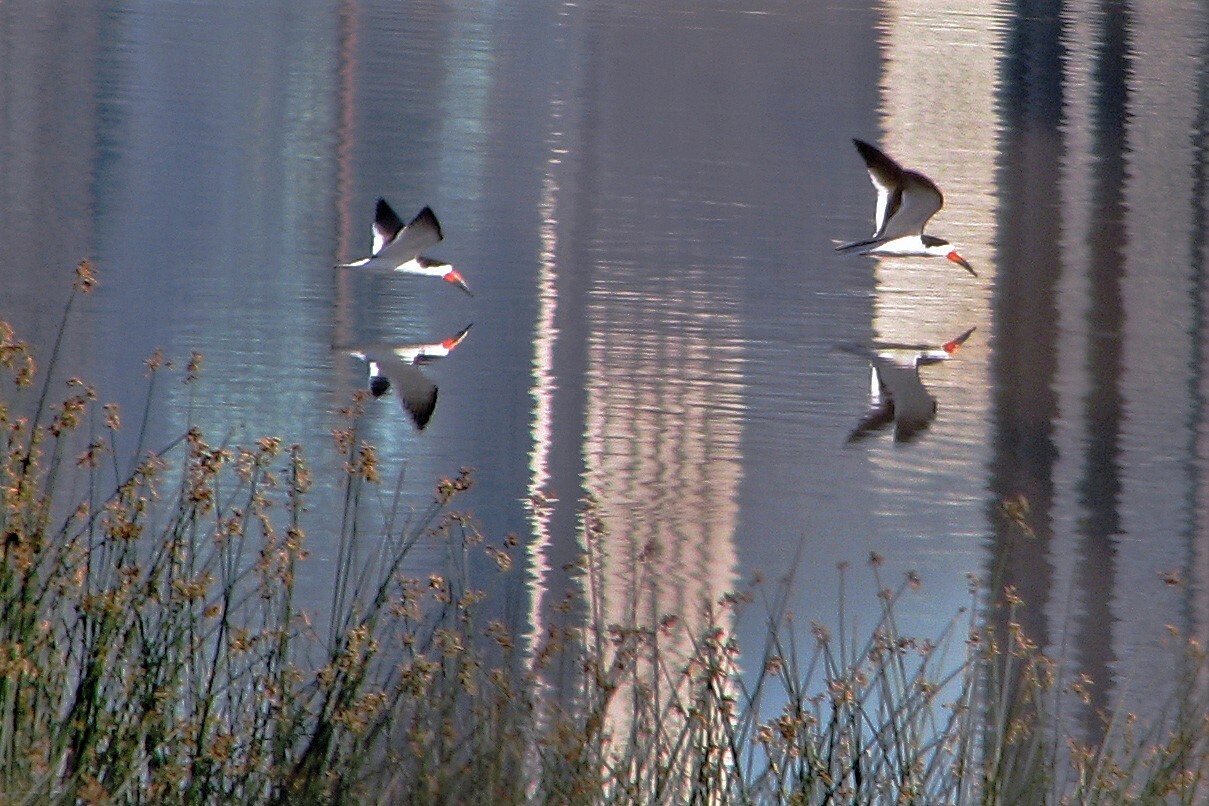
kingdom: Animalia
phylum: Chordata
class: Aves
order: Charadriiformes
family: Laridae
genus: Rynchops
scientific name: Rynchops niger
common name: Black skimmer
